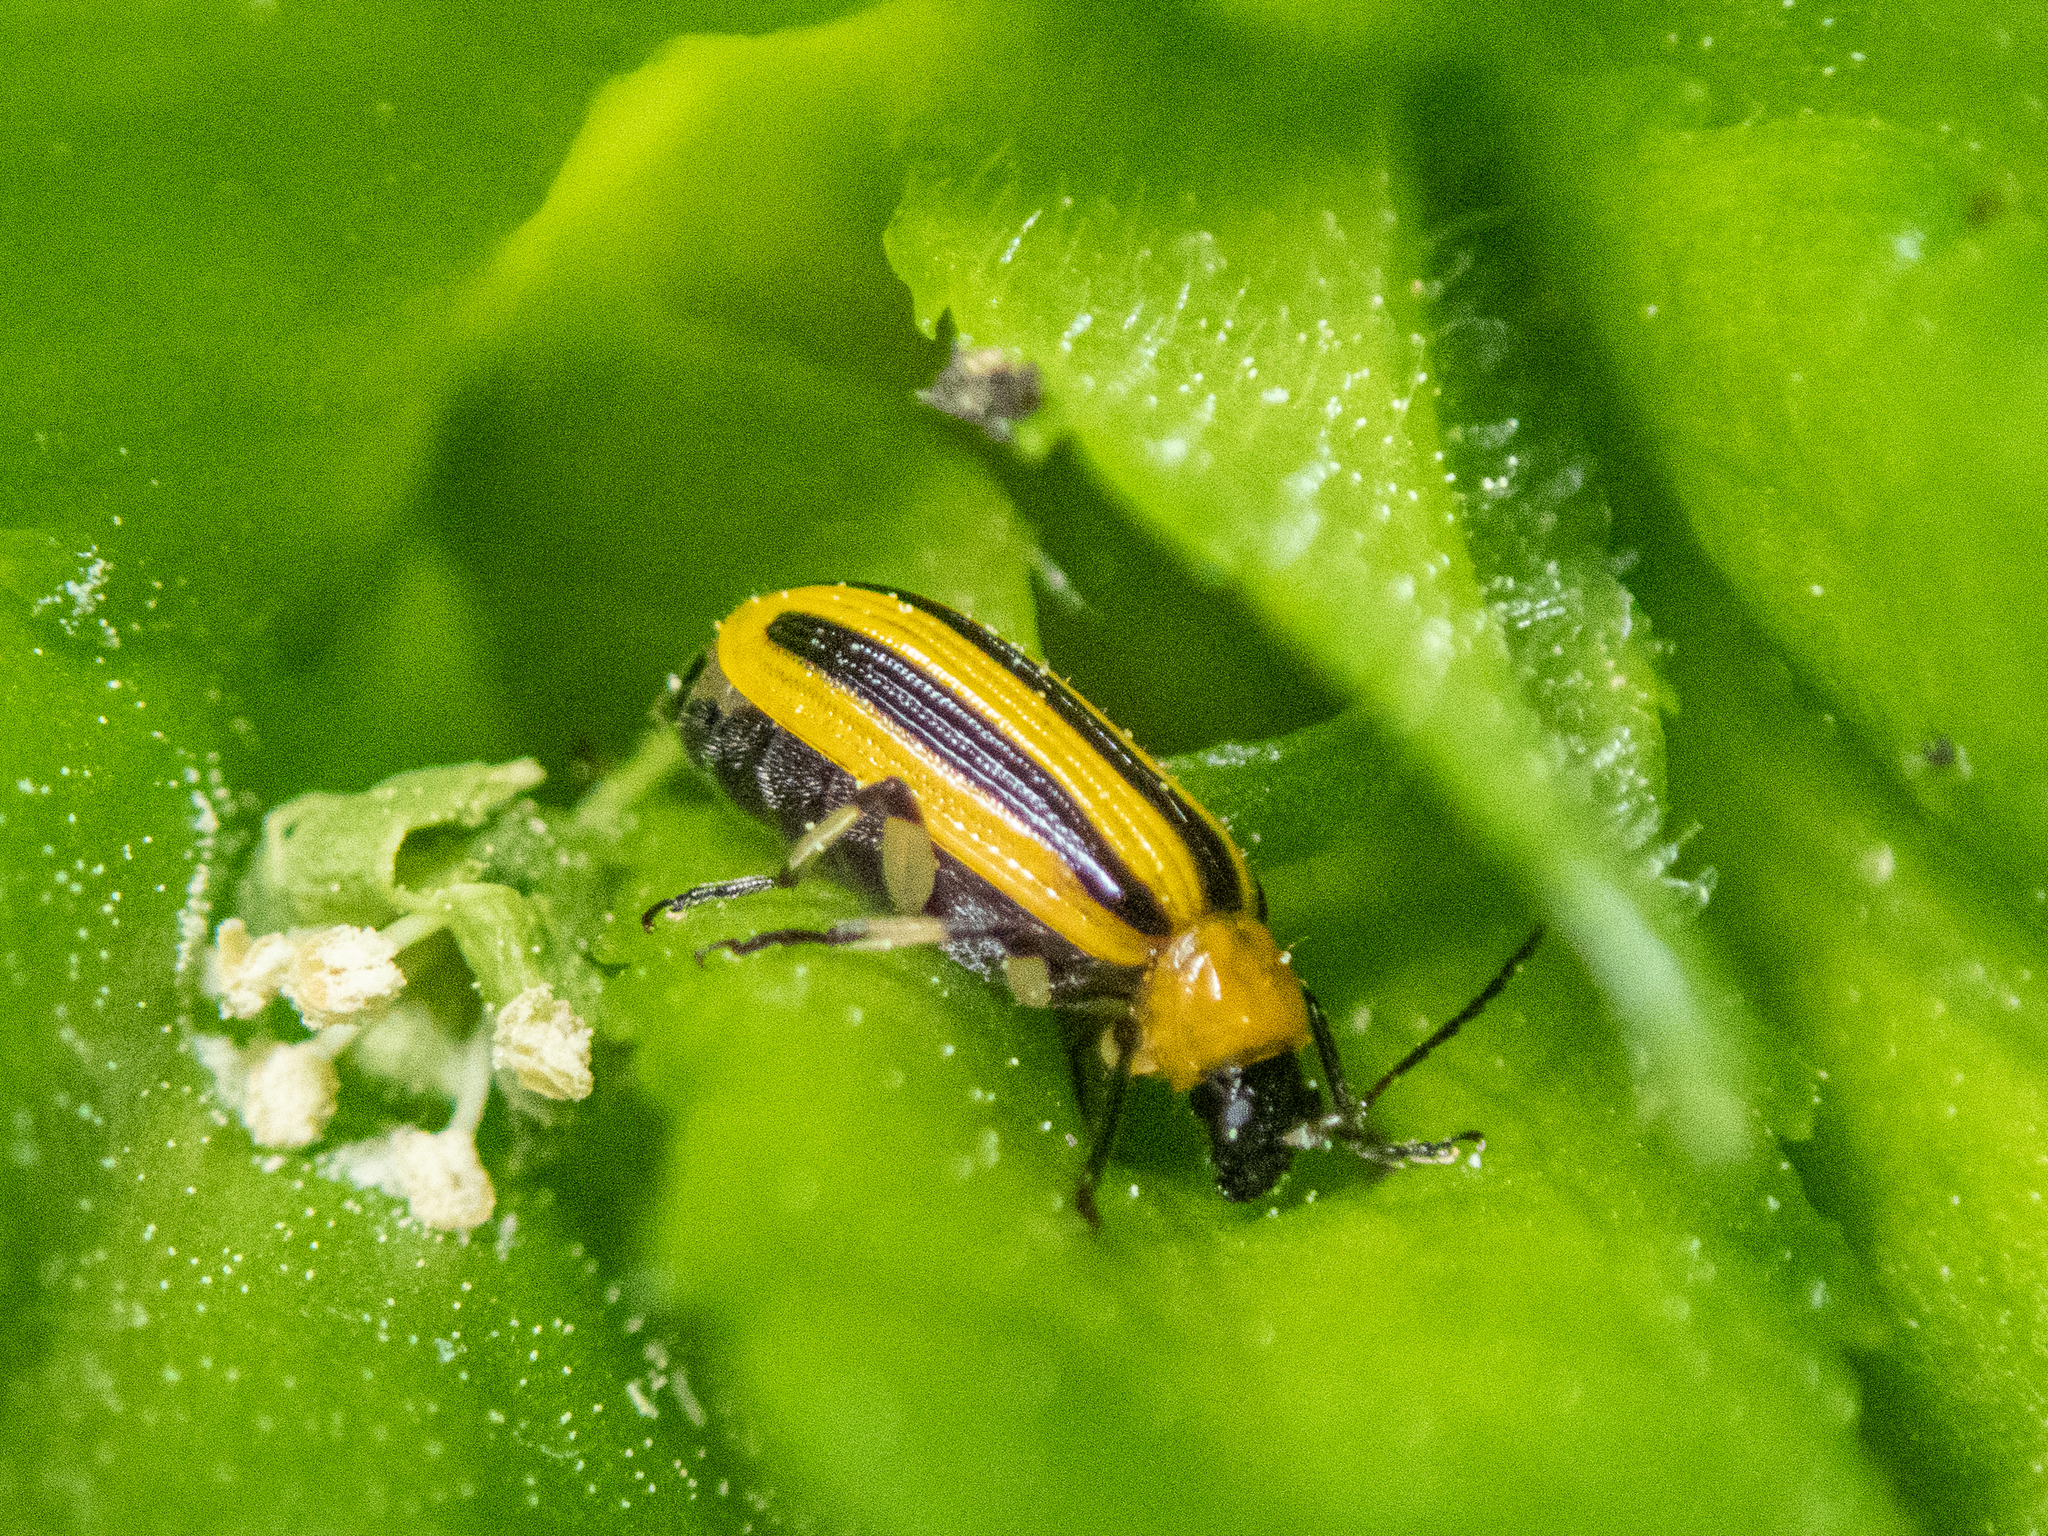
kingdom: Animalia
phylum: Arthropoda
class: Insecta
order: Coleoptera
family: Chrysomelidae
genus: Acalymma
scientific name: Acalymma vittatum
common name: Striped cucumber beetle
